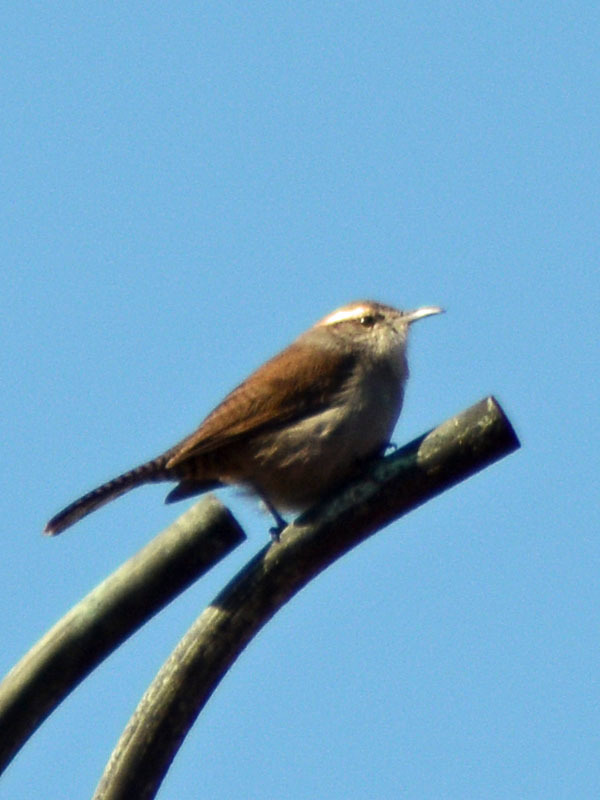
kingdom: Animalia
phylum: Chordata
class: Aves
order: Passeriformes
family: Troglodytidae
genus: Thryomanes
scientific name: Thryomanes bewickii
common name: Bewick's wren
